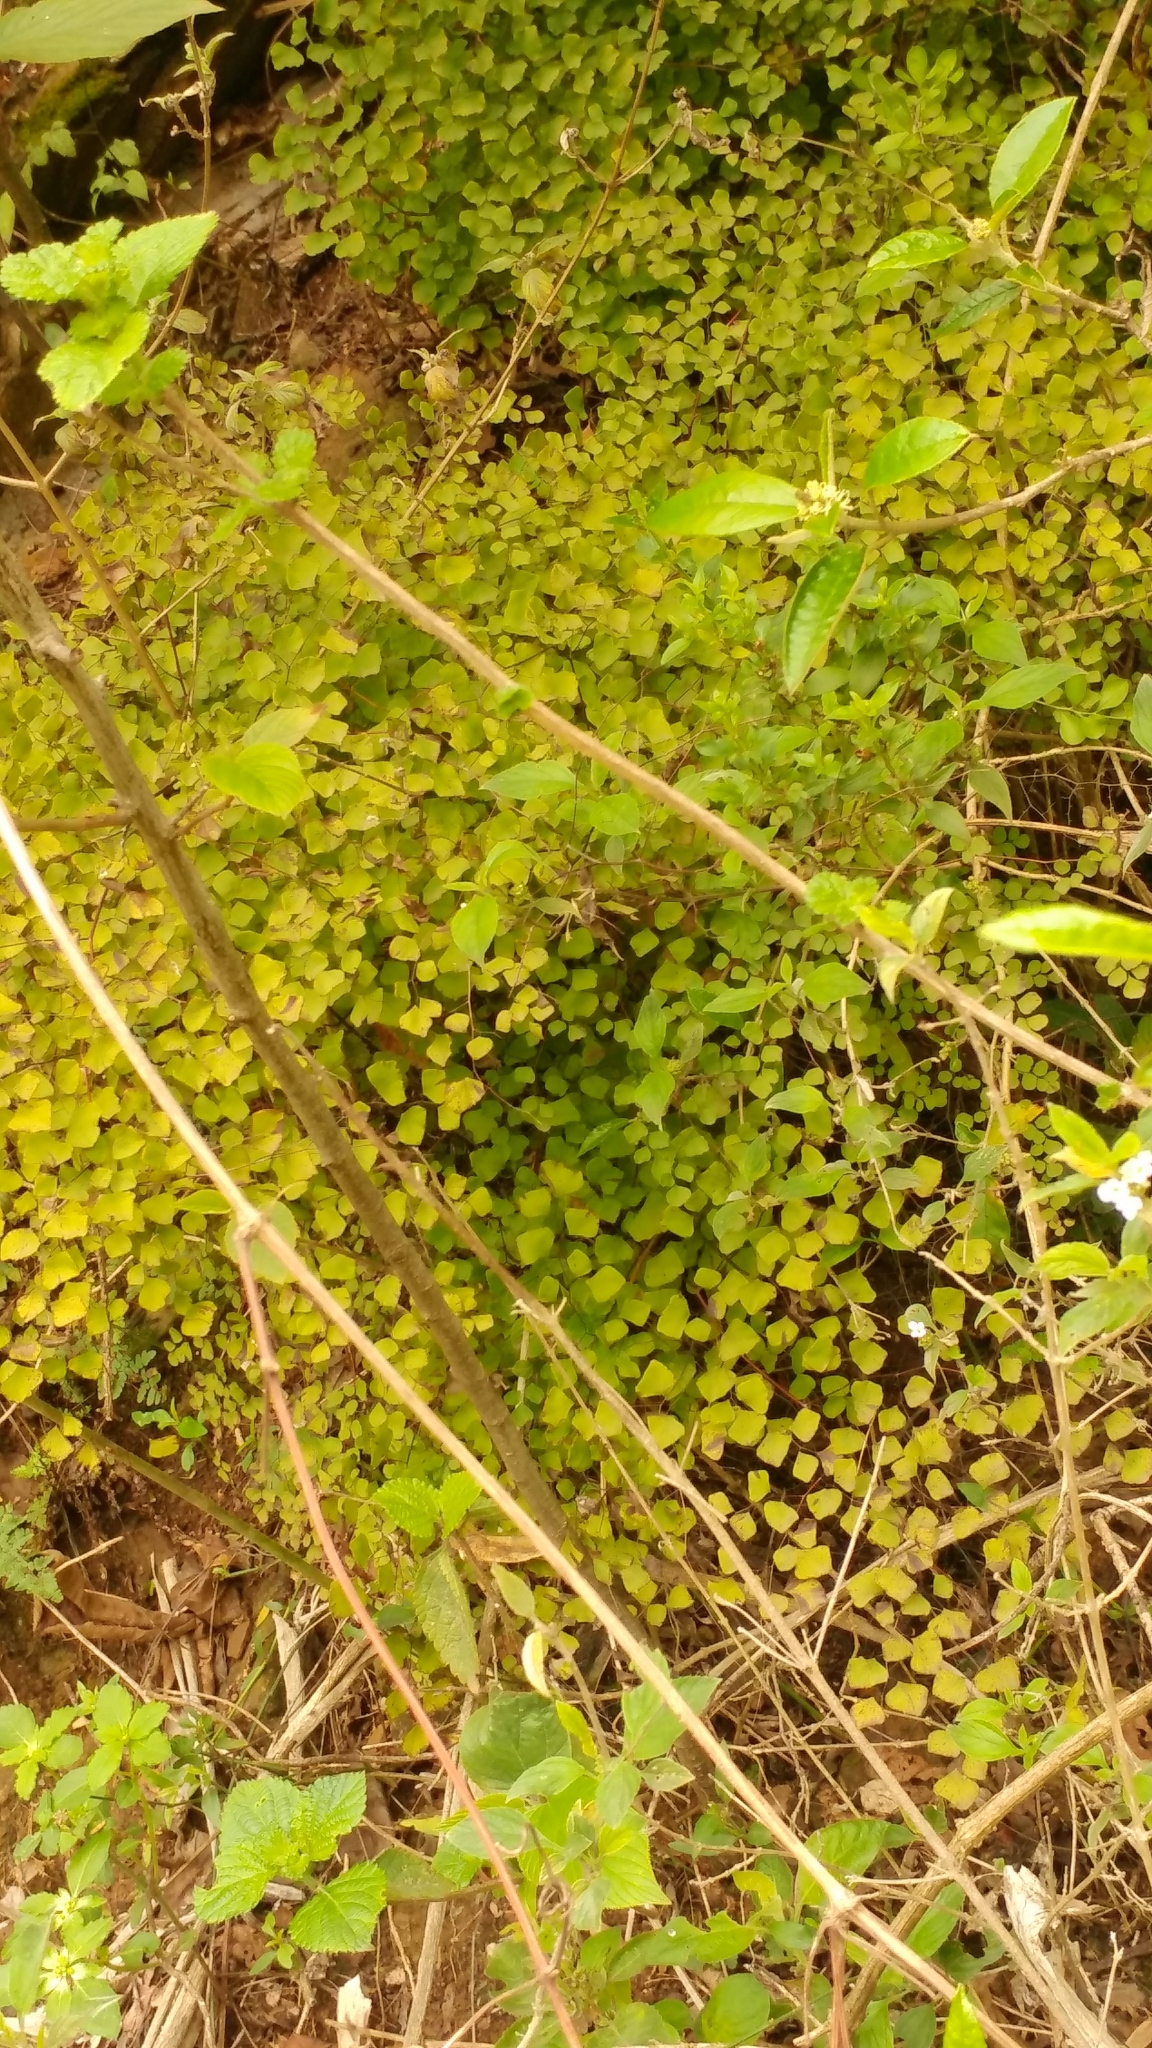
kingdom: Plantae
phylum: Tracheophyta
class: Polypodiopsida
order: Polypodiales
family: Pteridaceae
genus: Adiantum
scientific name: Adiantum tricholepis
